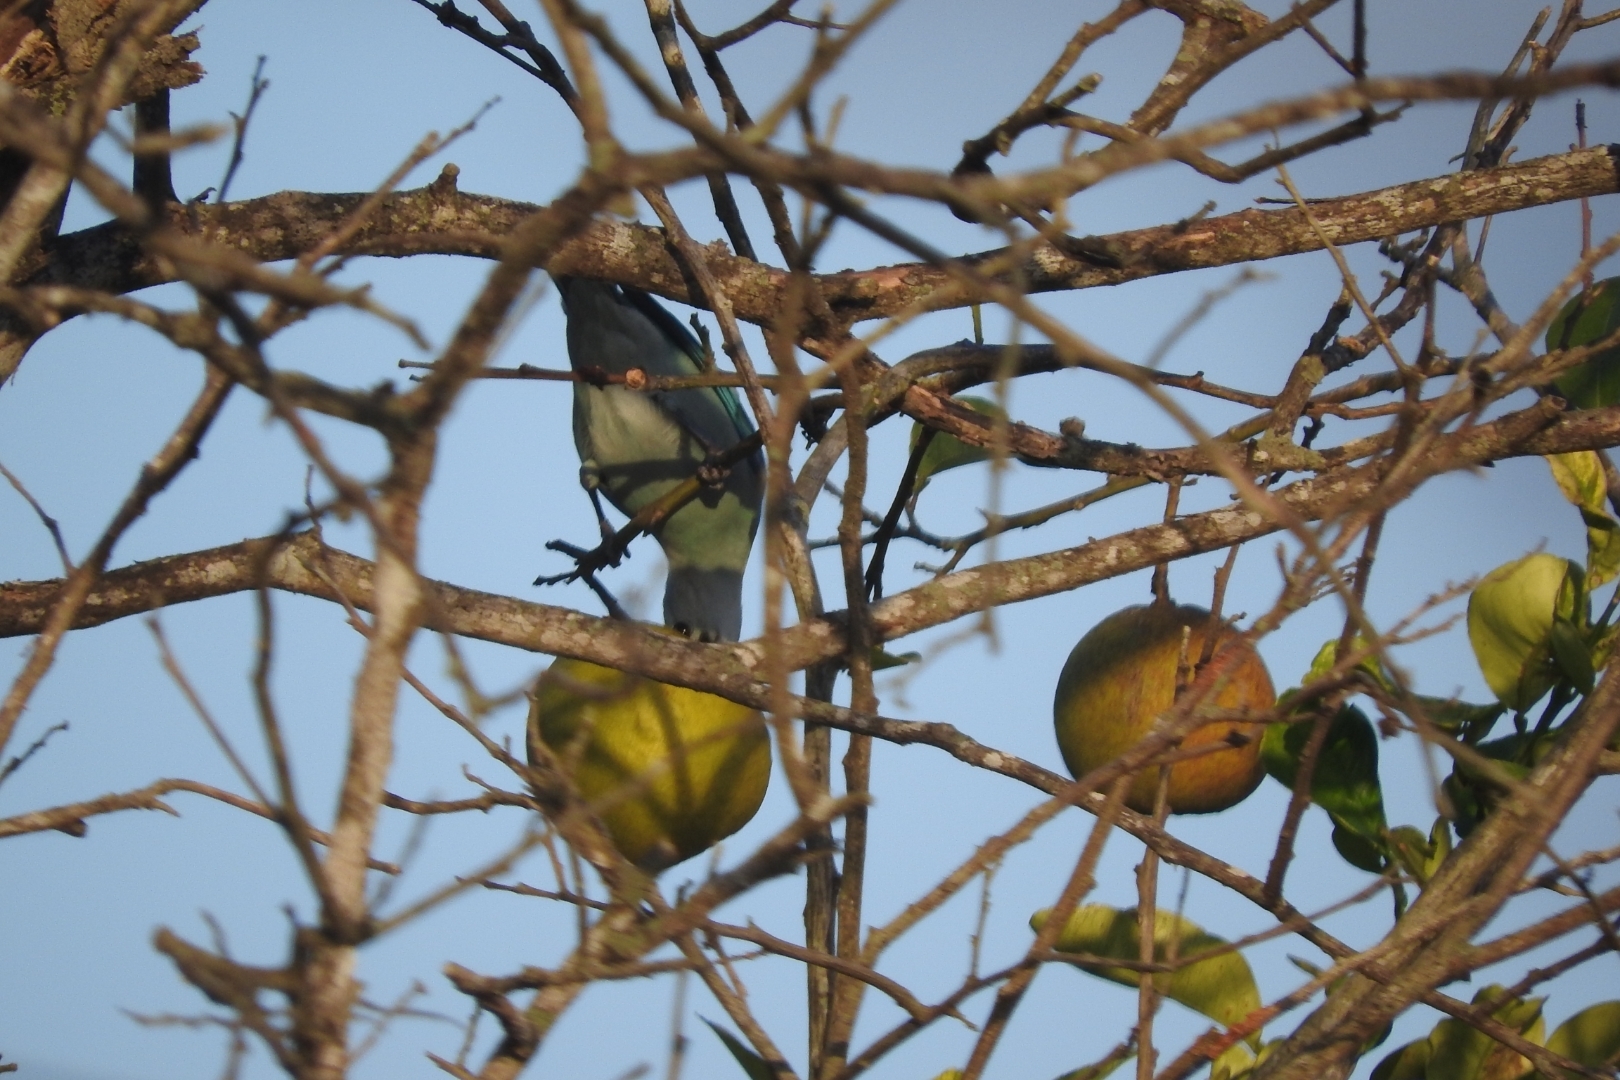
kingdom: Animalia
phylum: Chordata
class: Aves
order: Passeriformes
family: Thraupidae
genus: Thraupis
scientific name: Thraupis episcopus
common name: Blue-grey tanager
